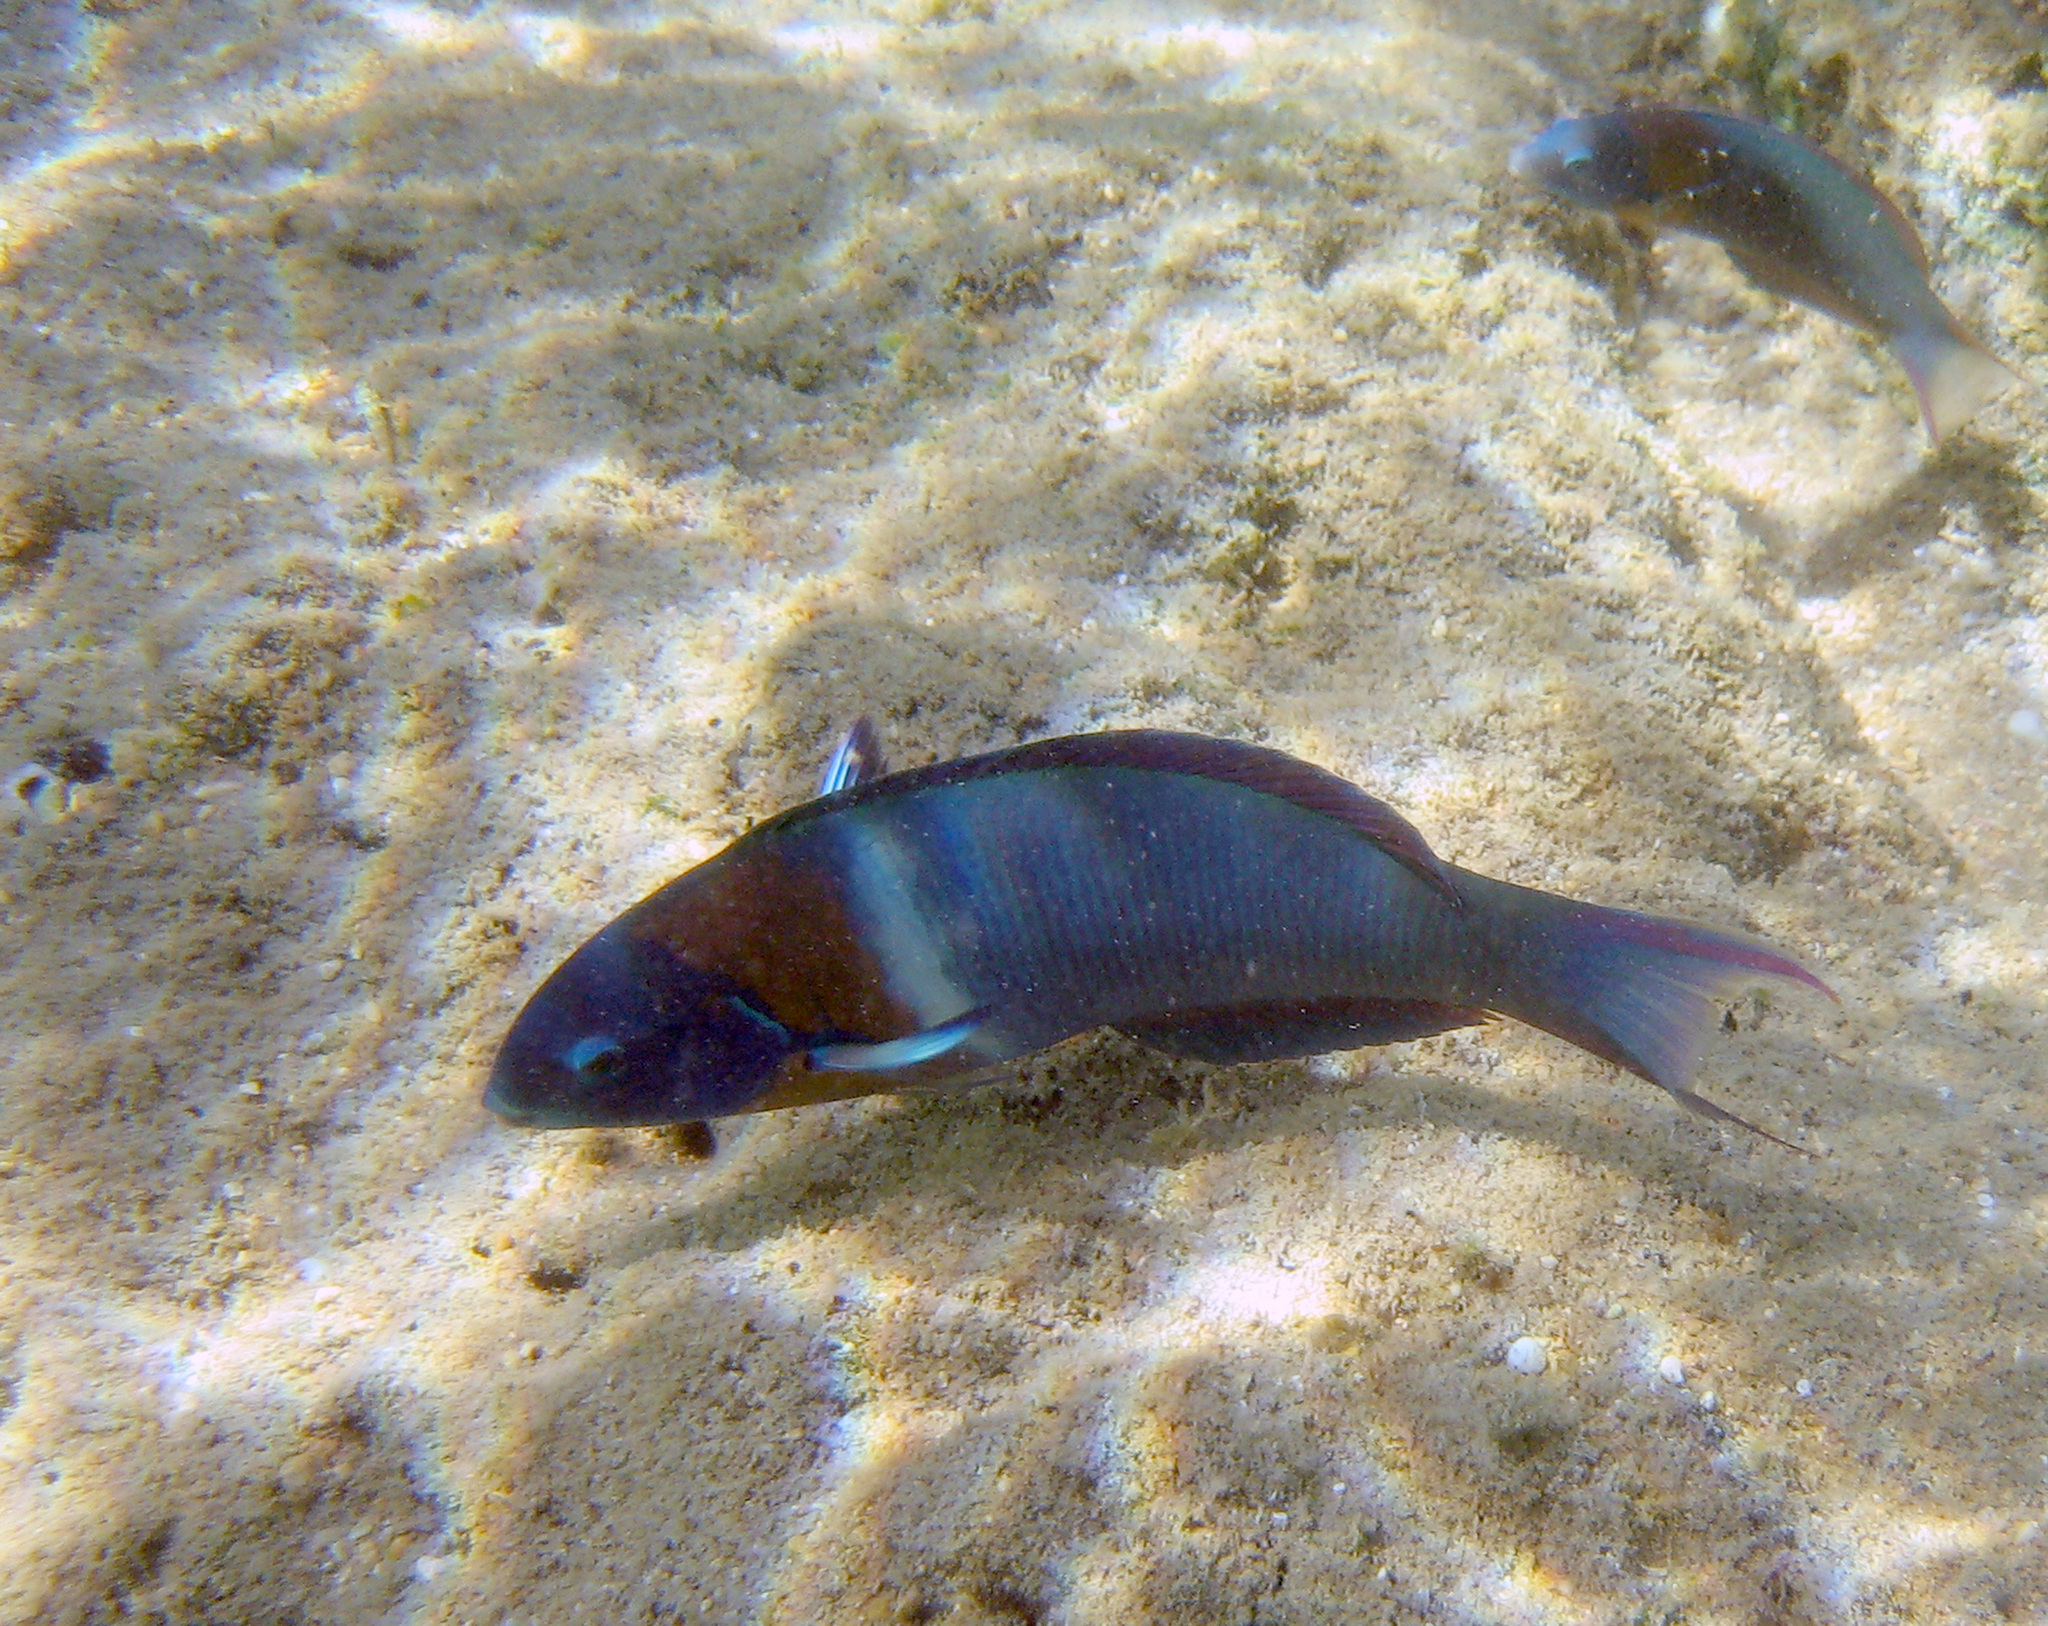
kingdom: Animalia
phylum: Chordata
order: Perciformes
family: Labridae
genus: Thalassoma
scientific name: Thalassoma duperrey
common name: Saddle wrasse
